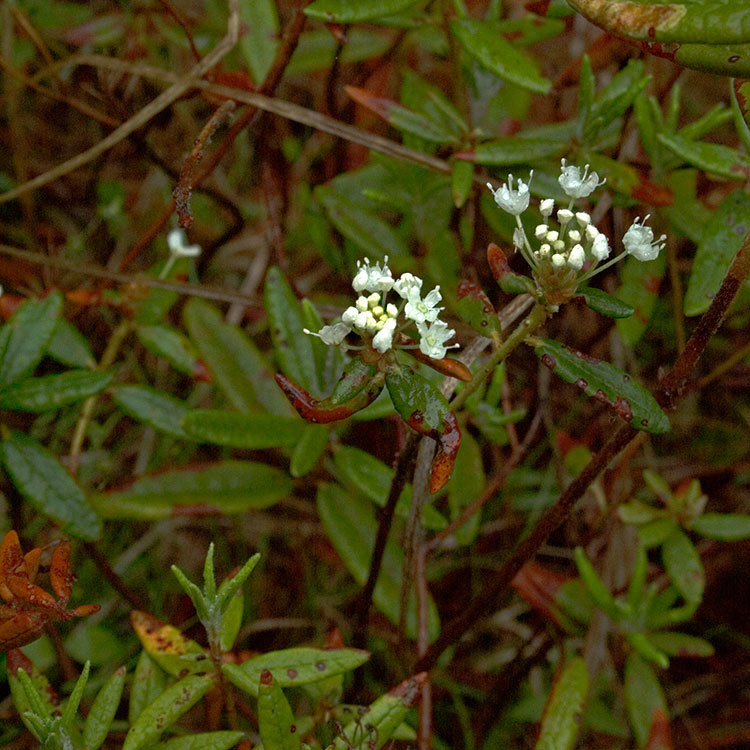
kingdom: Plantae
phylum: Tracheophyta
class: Magnoliopsida
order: Ericales
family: Ericaceae
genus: Rhododendron
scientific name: Rhododendron groenlandicum
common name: Bog labrador tea
